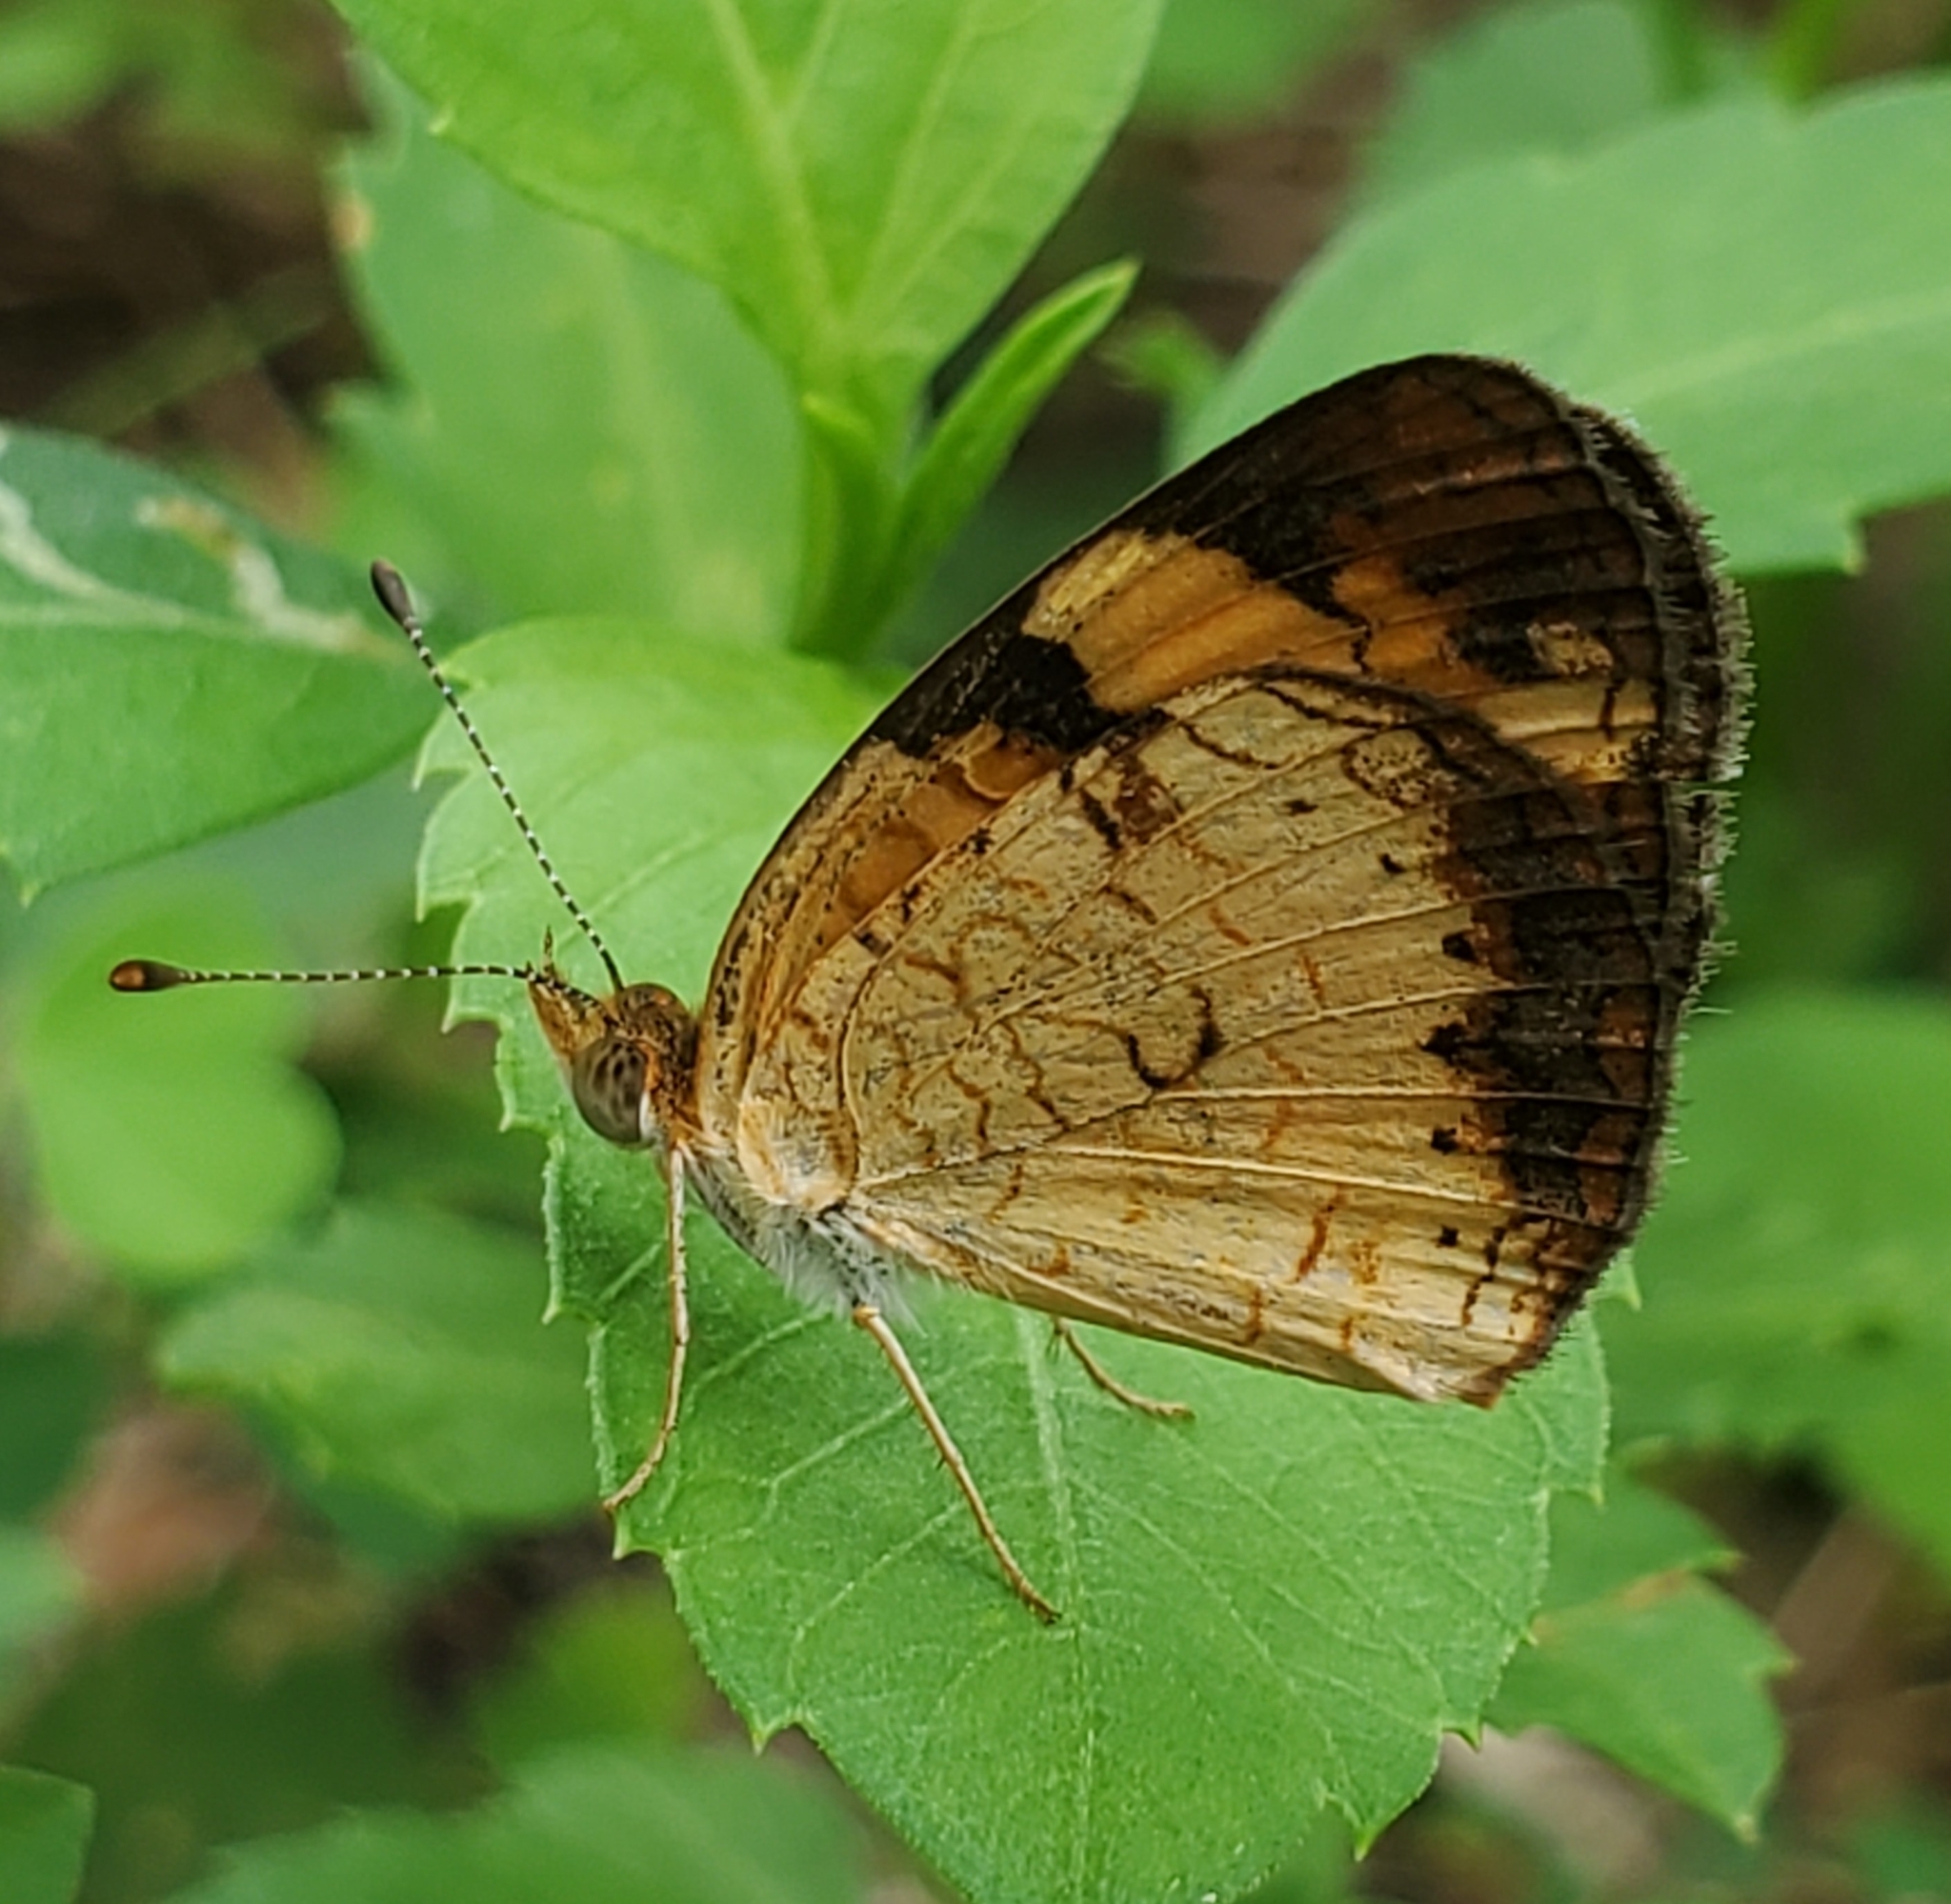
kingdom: Animalia
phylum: Arthropoda
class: Insecta
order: Lepidoptera
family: Nymphalidae
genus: Phyciodes
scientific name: Phyciodes tharos
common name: Pearl crescent
